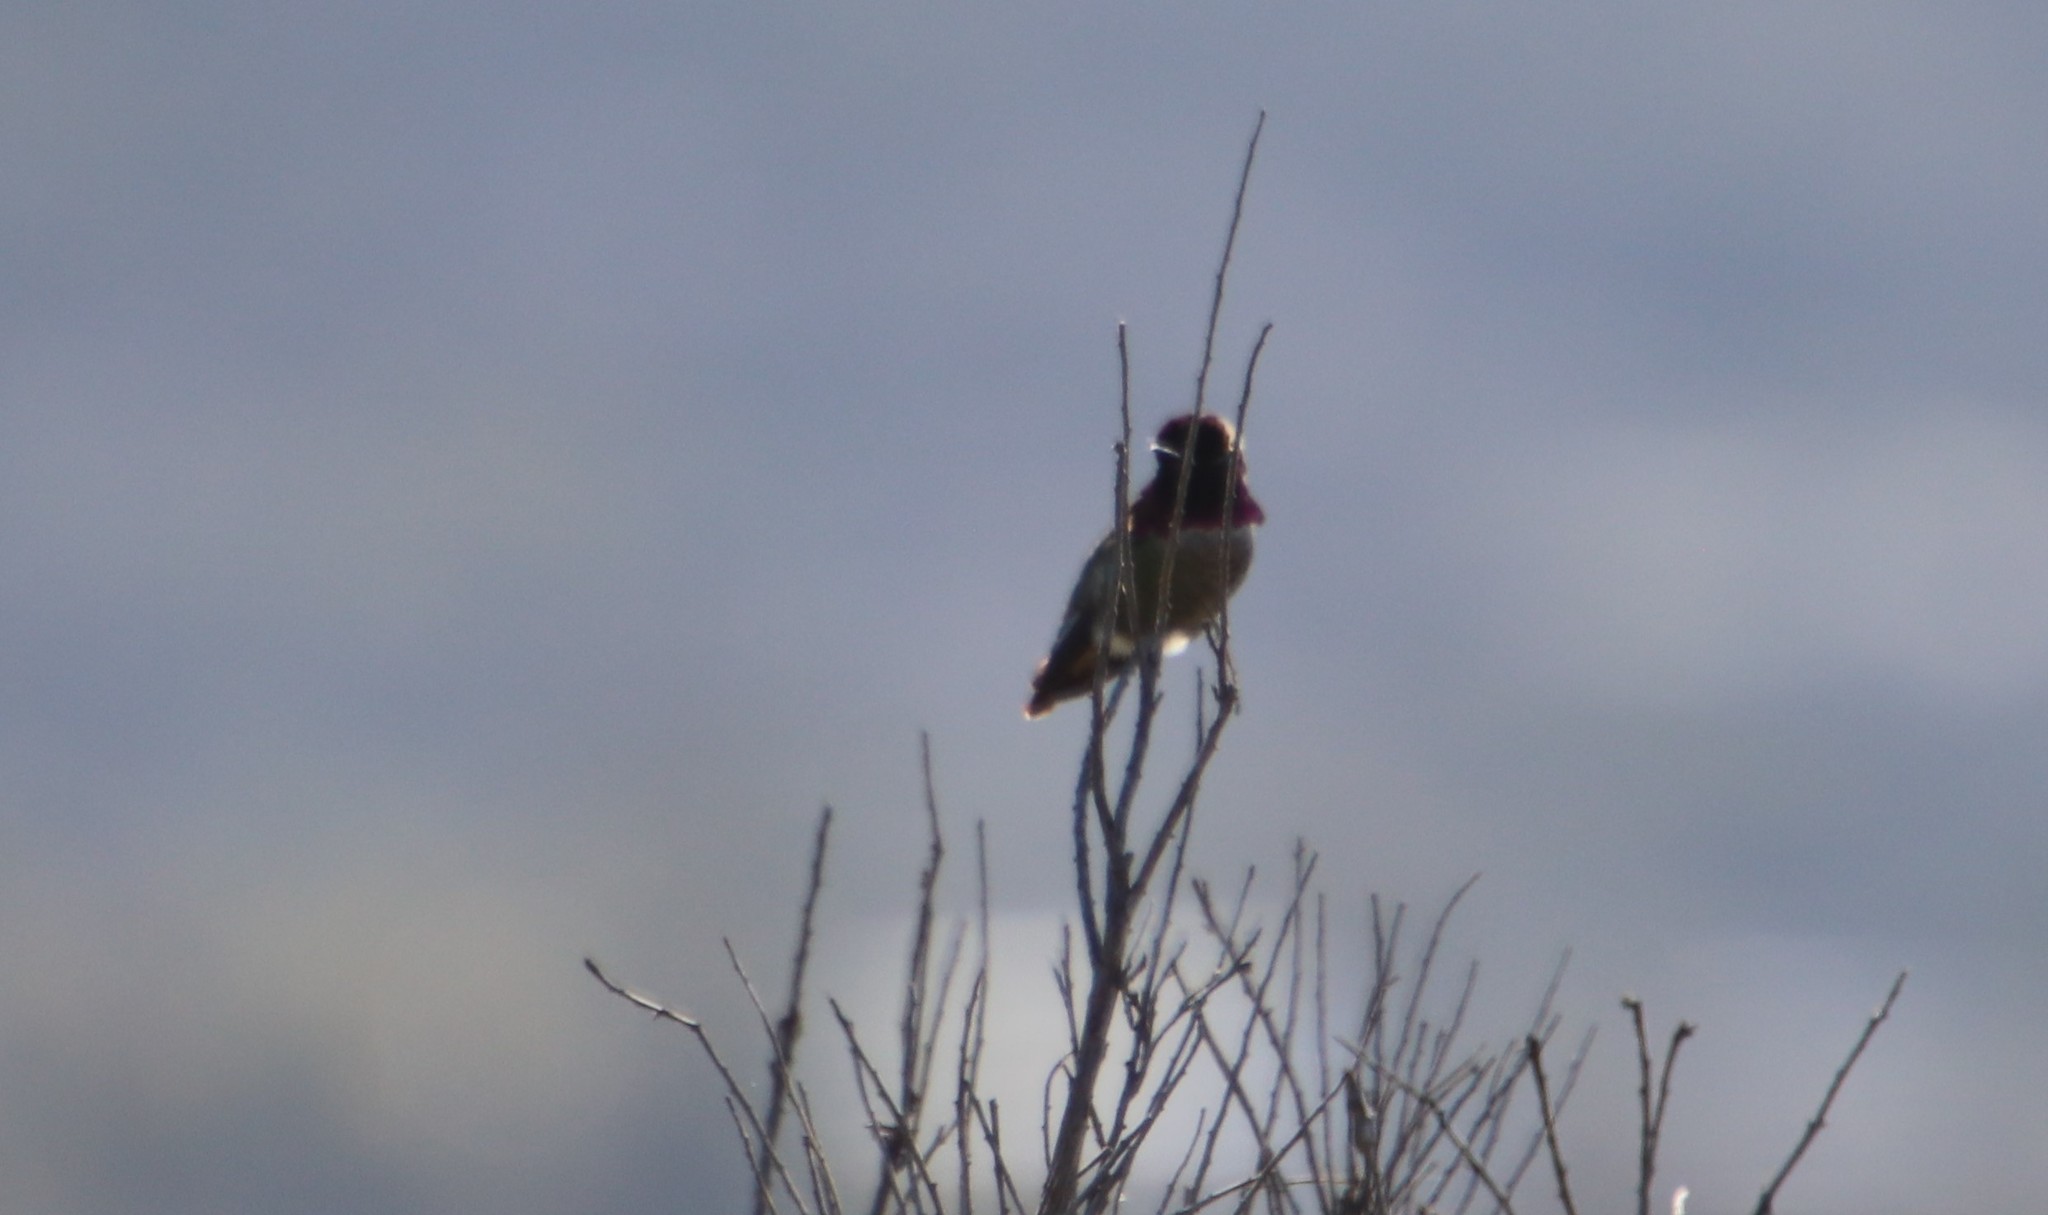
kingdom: Animalia
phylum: Chordata
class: Aves
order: Apodiformes
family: Trochilidae
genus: Calypte
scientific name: Calypte anna
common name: Anna's hummingbird
